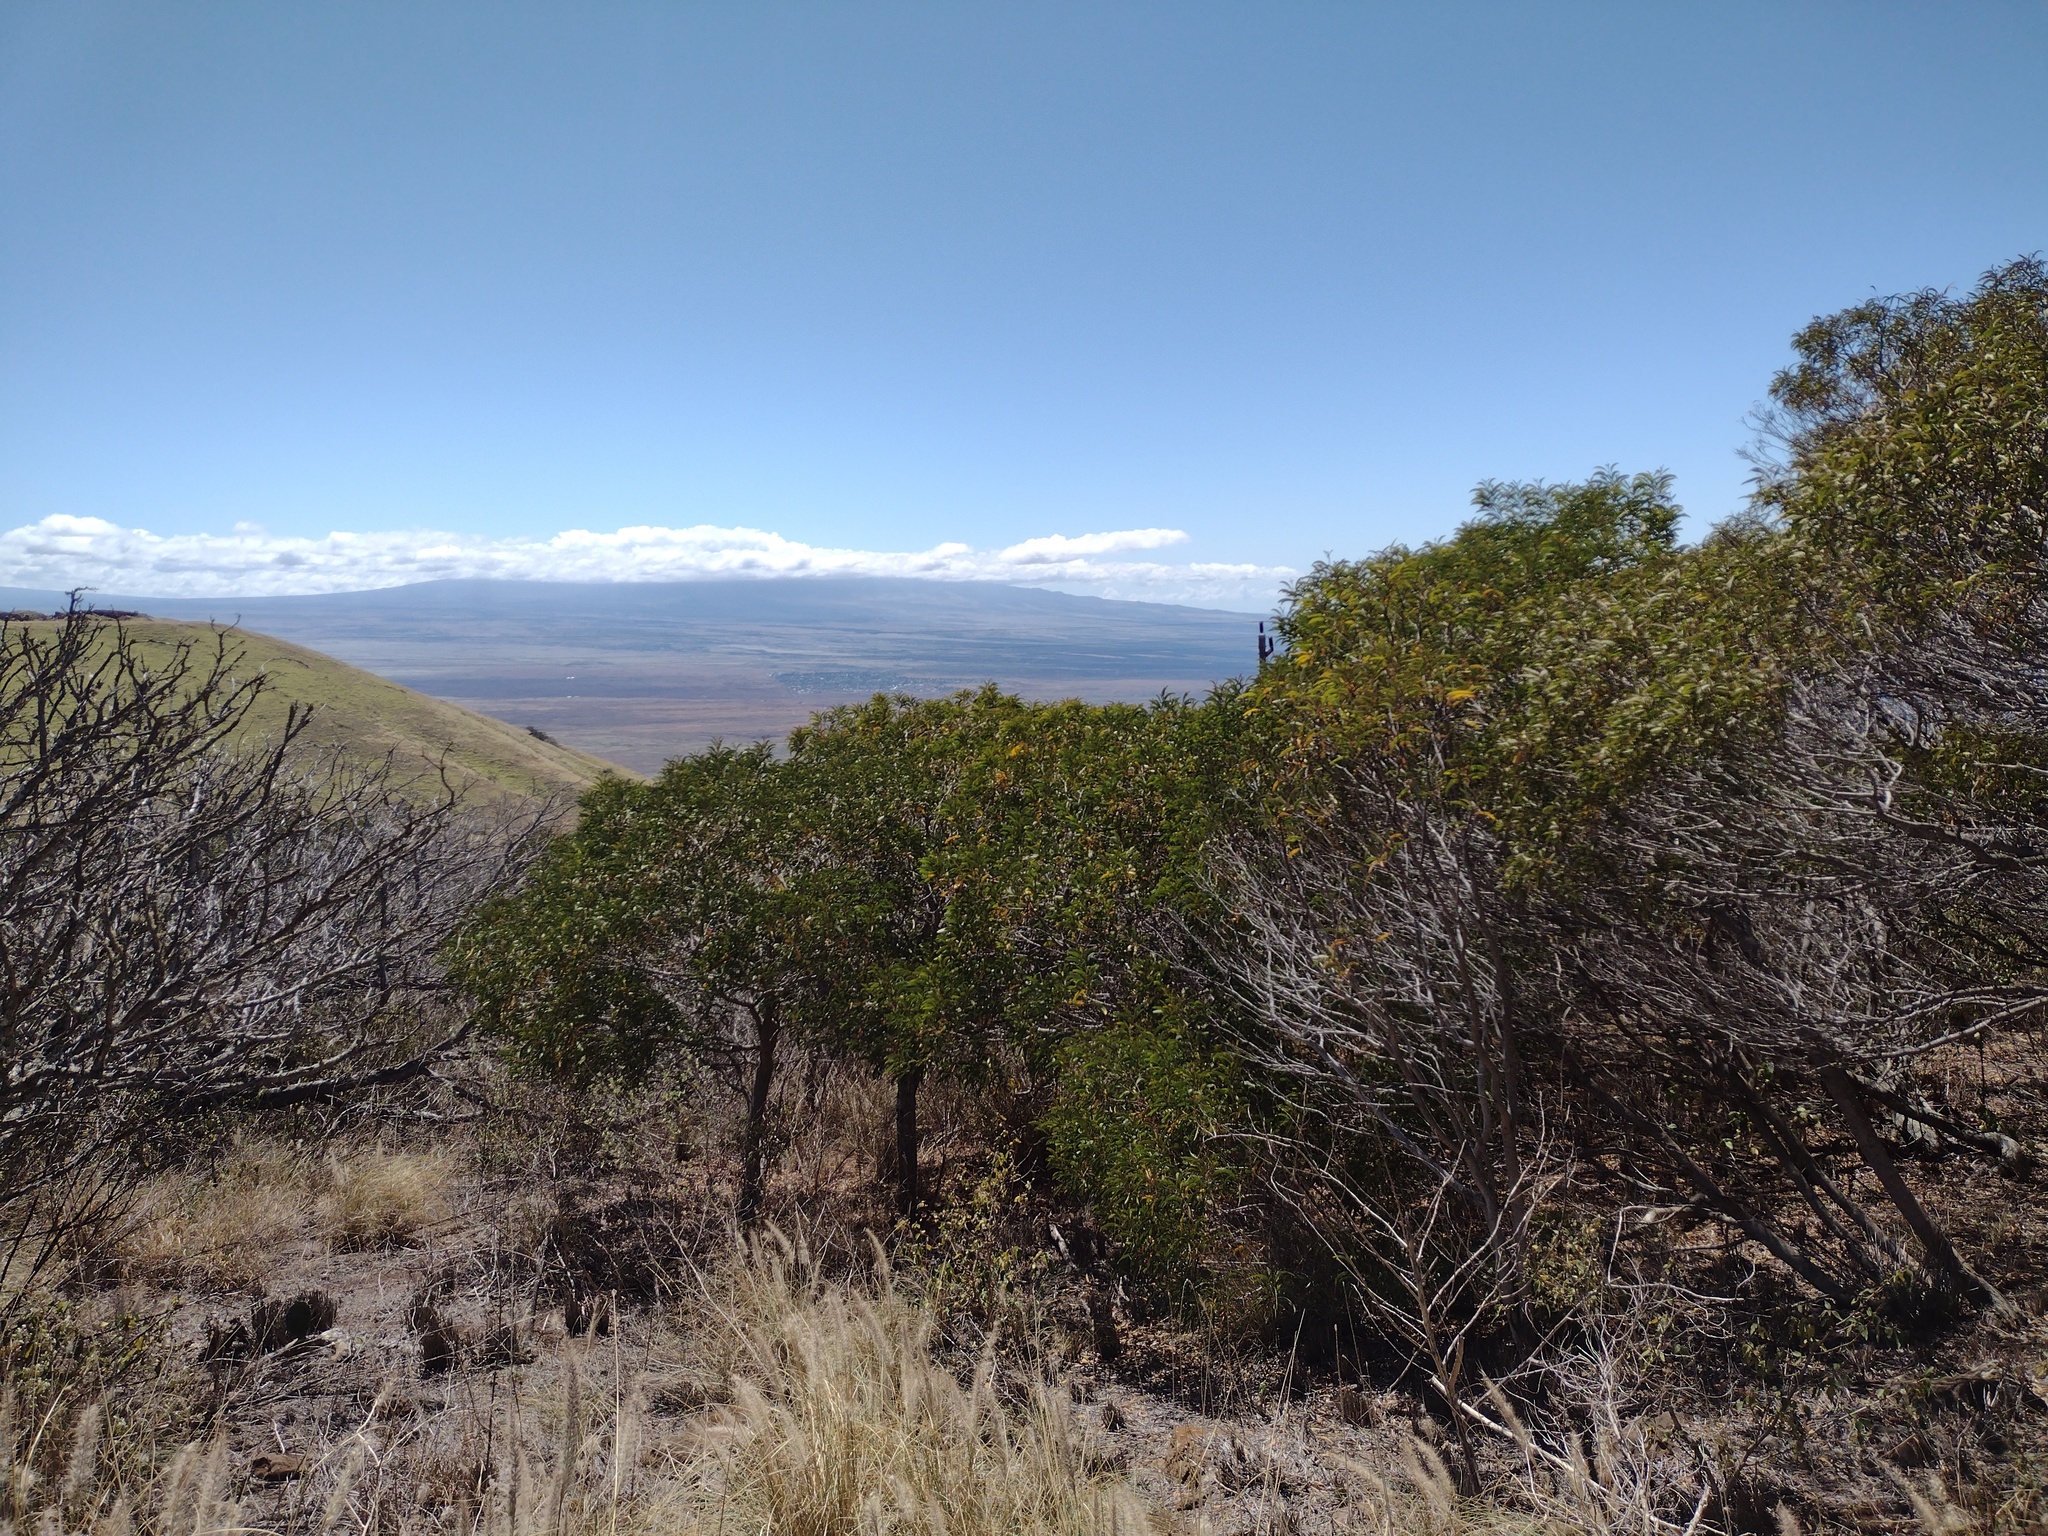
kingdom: Plantae
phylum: Tracheophyta
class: Magnoliopsida
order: Fabales
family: Fabaceae
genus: Acacia
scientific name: Acacia koa
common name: Gray koa
